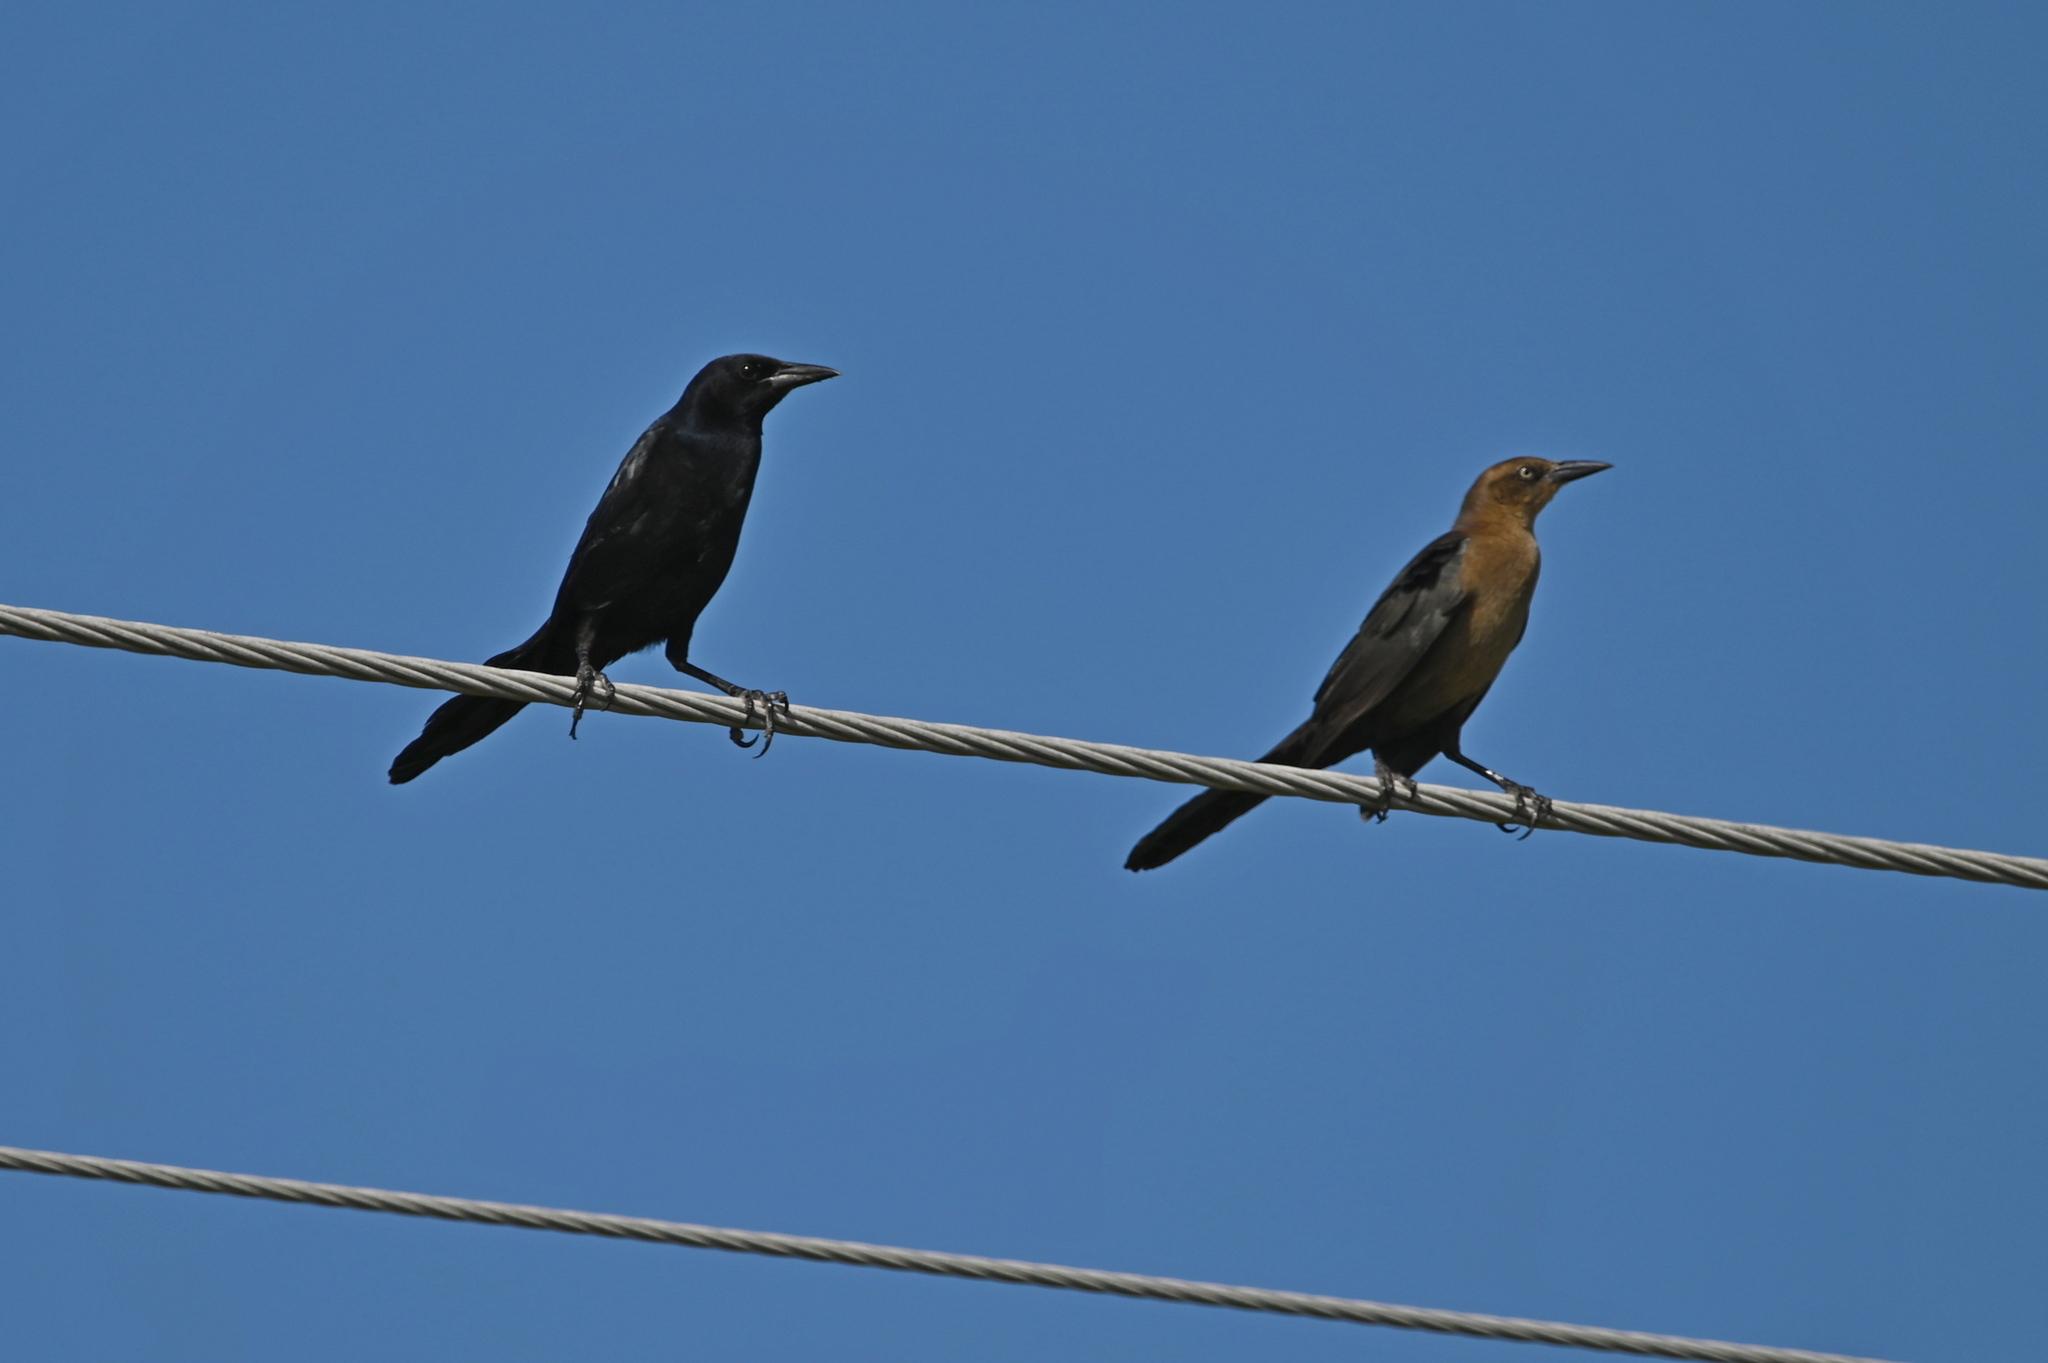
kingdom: Animalia
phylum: Chordata
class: Aves
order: Passeriformes
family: Icteridae
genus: Quiscalus
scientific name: Quiscalus mexicanus
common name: Great-tailed grackle
